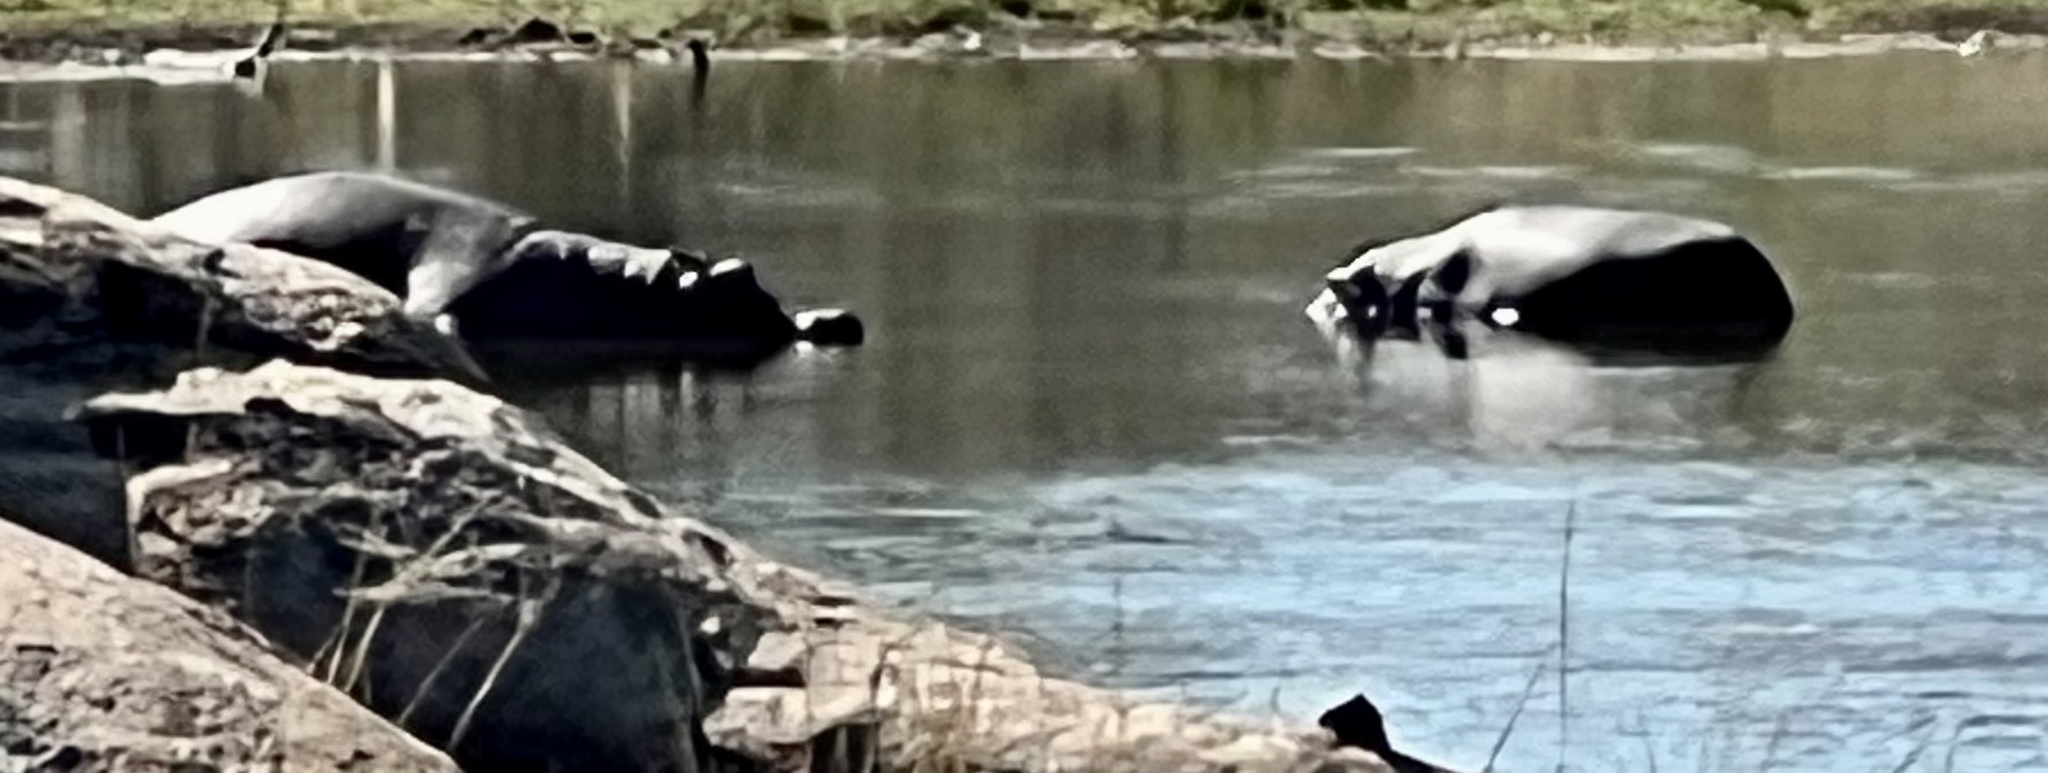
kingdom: Animalia
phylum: Chordata
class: Mammalia
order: Artiodactyla
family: Hippopotamidae
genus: Hippopotamus
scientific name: Hippopotamus amphibius
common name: Common hippopotamus
